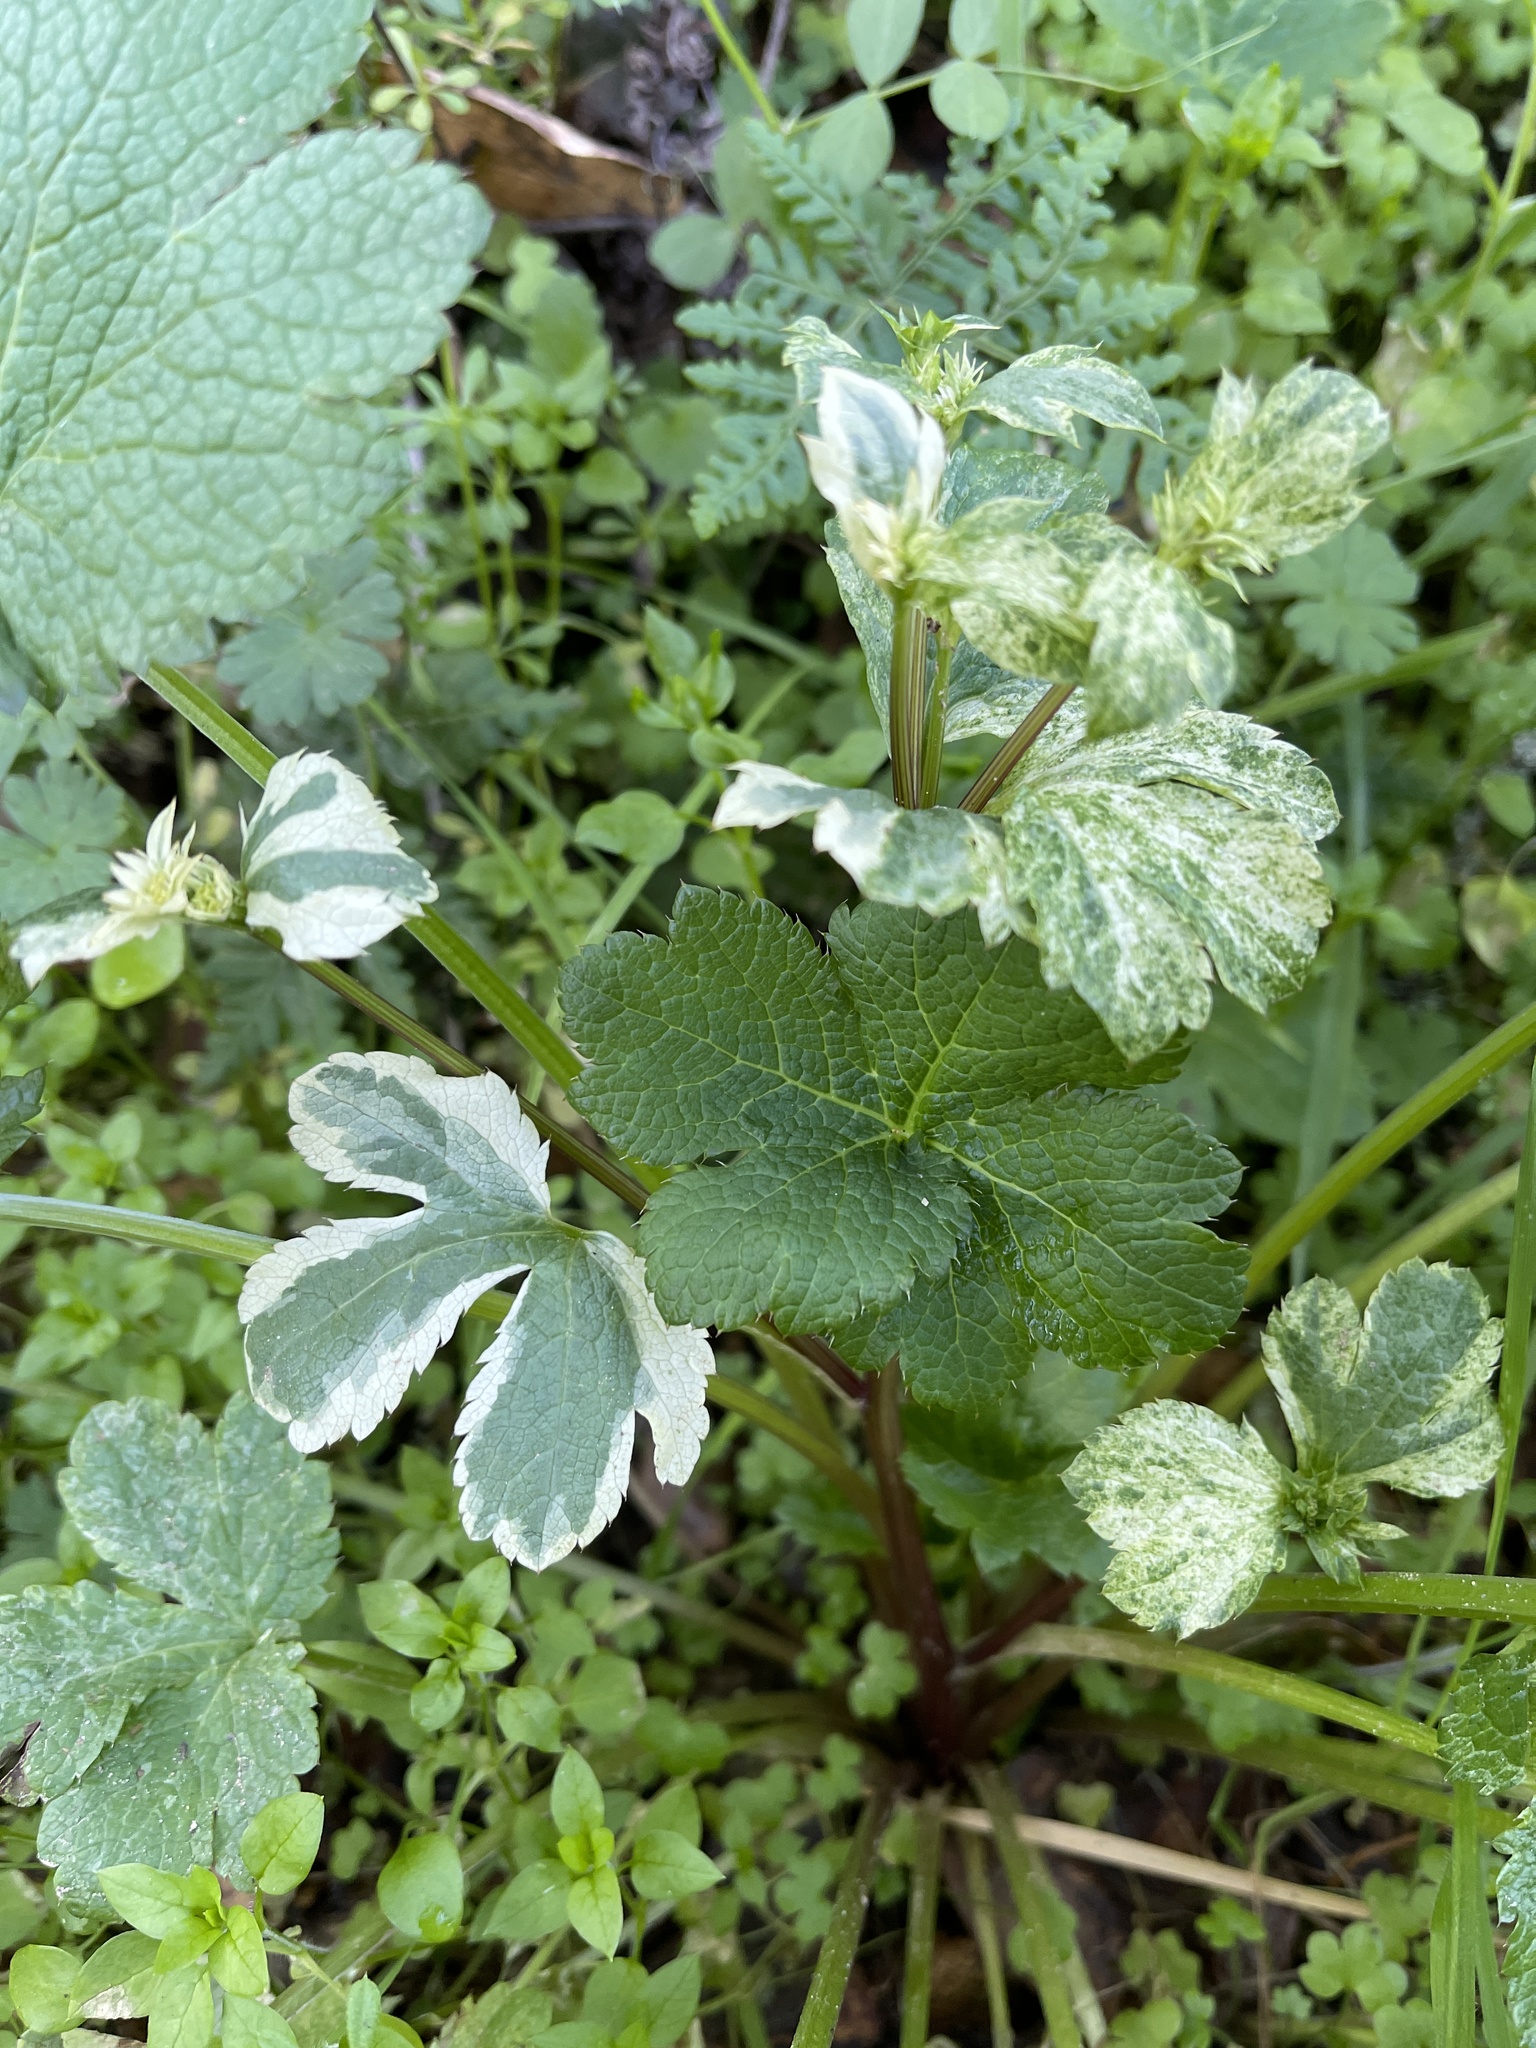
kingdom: Plantae
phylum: Tracheophyta
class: Magnoliopsida
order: Apiales
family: Apiaceae
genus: Sanicula
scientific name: Sanicula crassicaulis
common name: Western snakeroot
